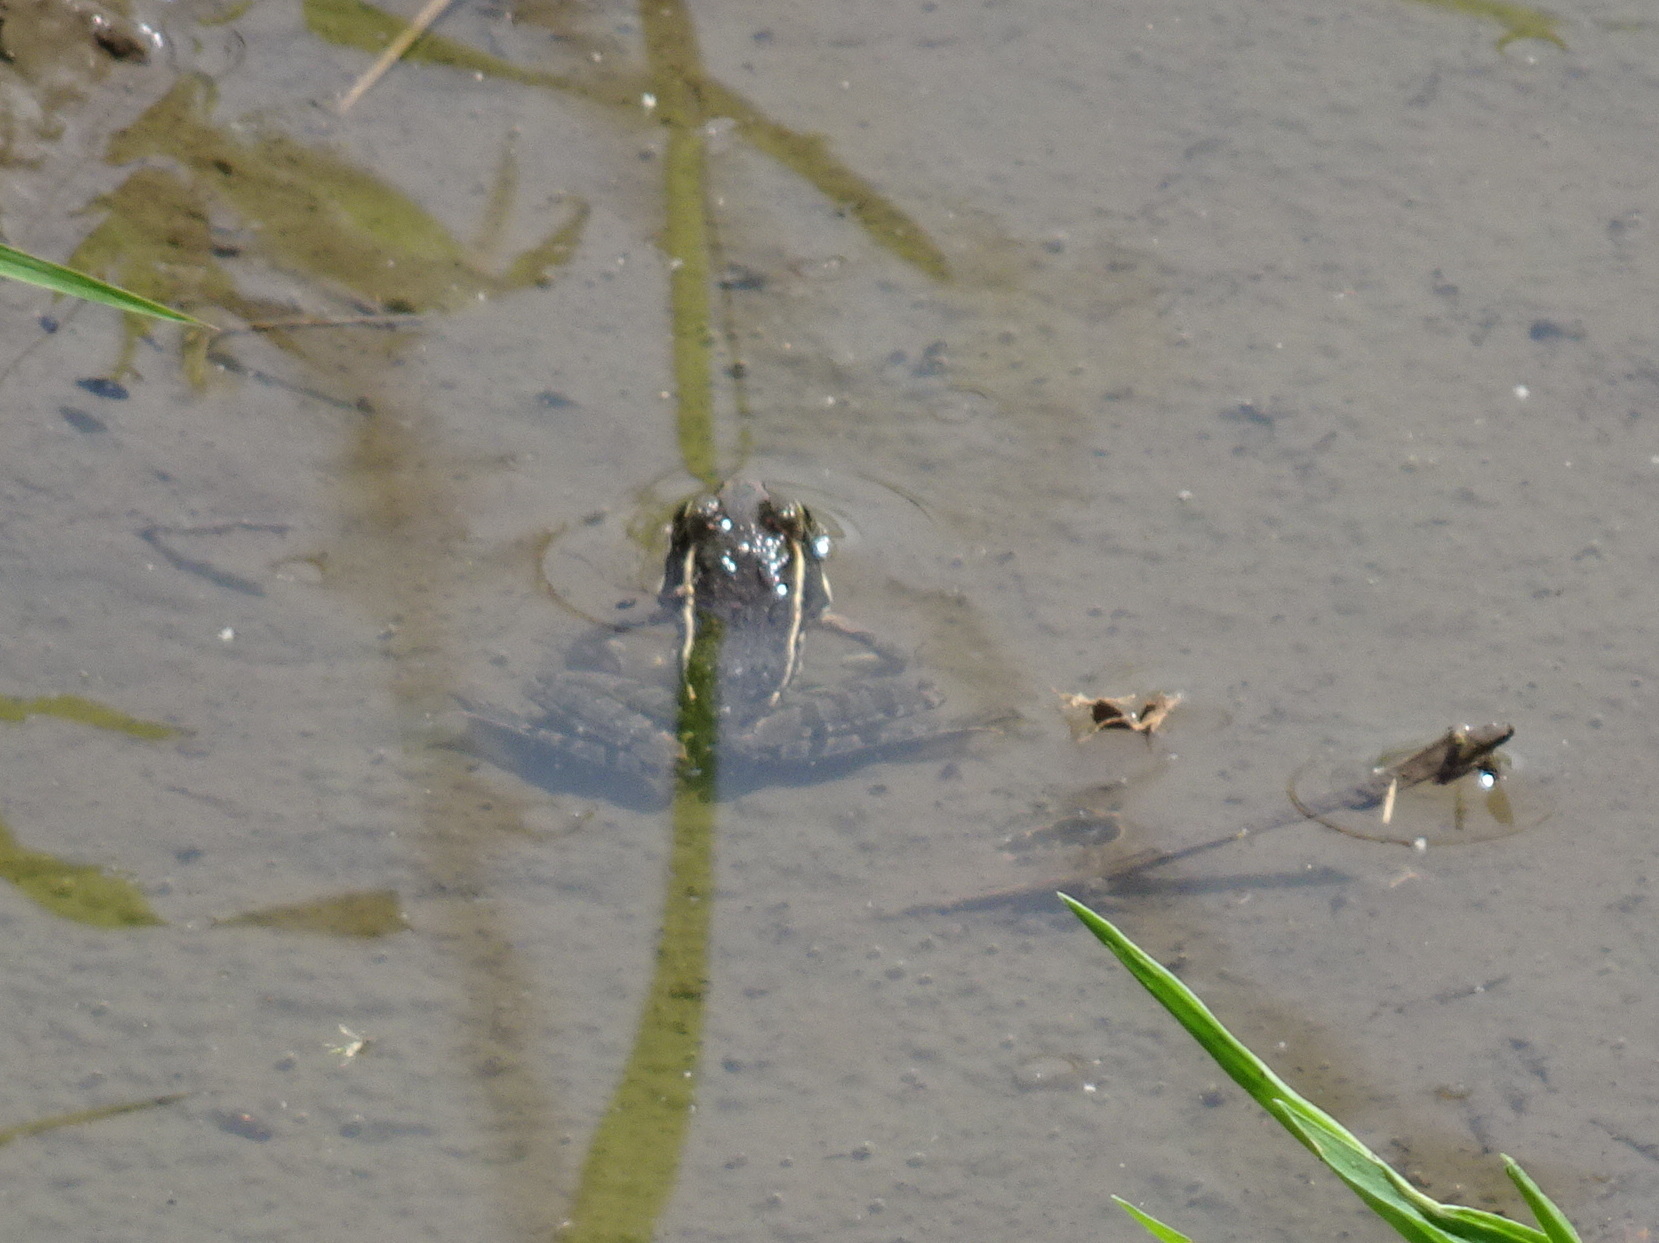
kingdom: Animalia
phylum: Chordata
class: Amphibia
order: Anura
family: Ranidae
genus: Lithobates
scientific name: Lithobates blairi
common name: Plains leopard frog
